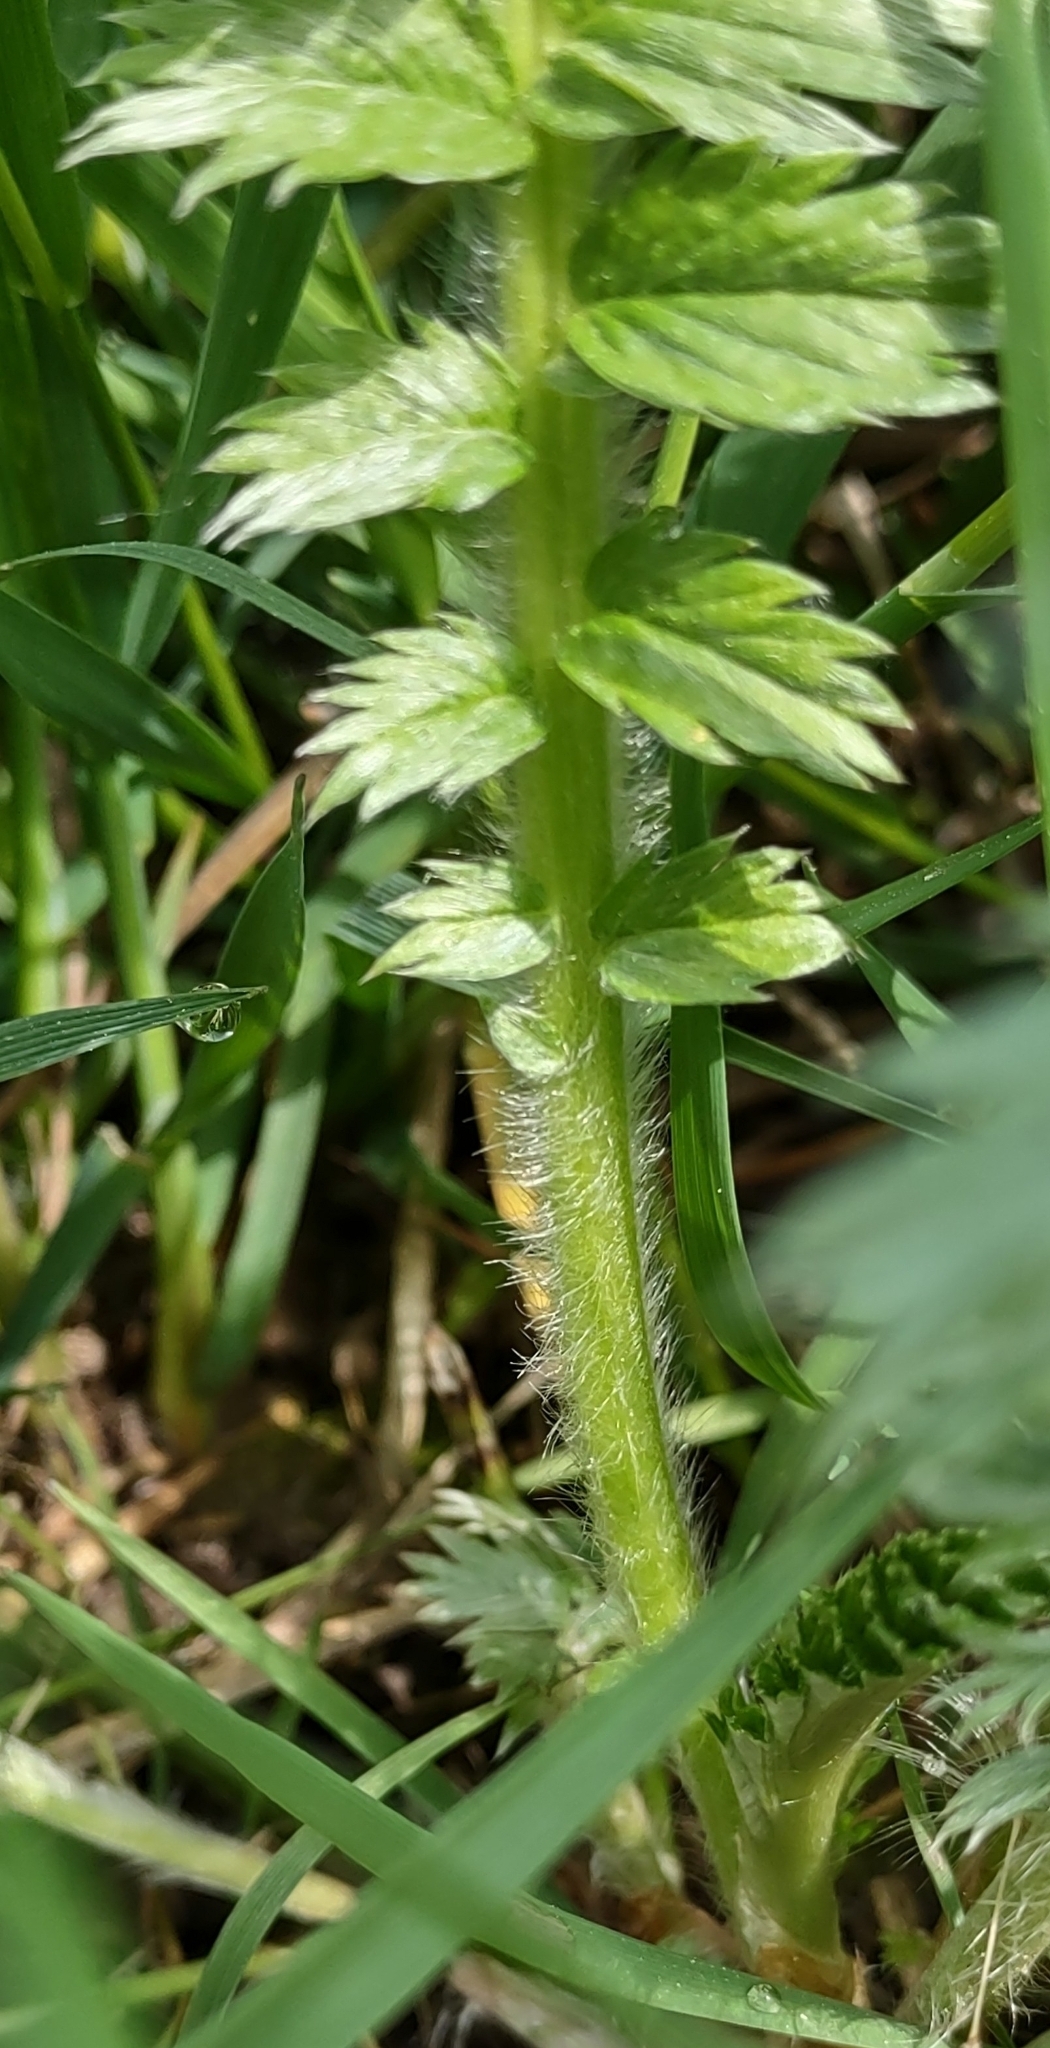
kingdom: Plantae
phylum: Tracheophyta
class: Magnoliopsida
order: Rosales
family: Rosaceae
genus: Argentina
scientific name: Argentina anserina
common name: Common silverweed
